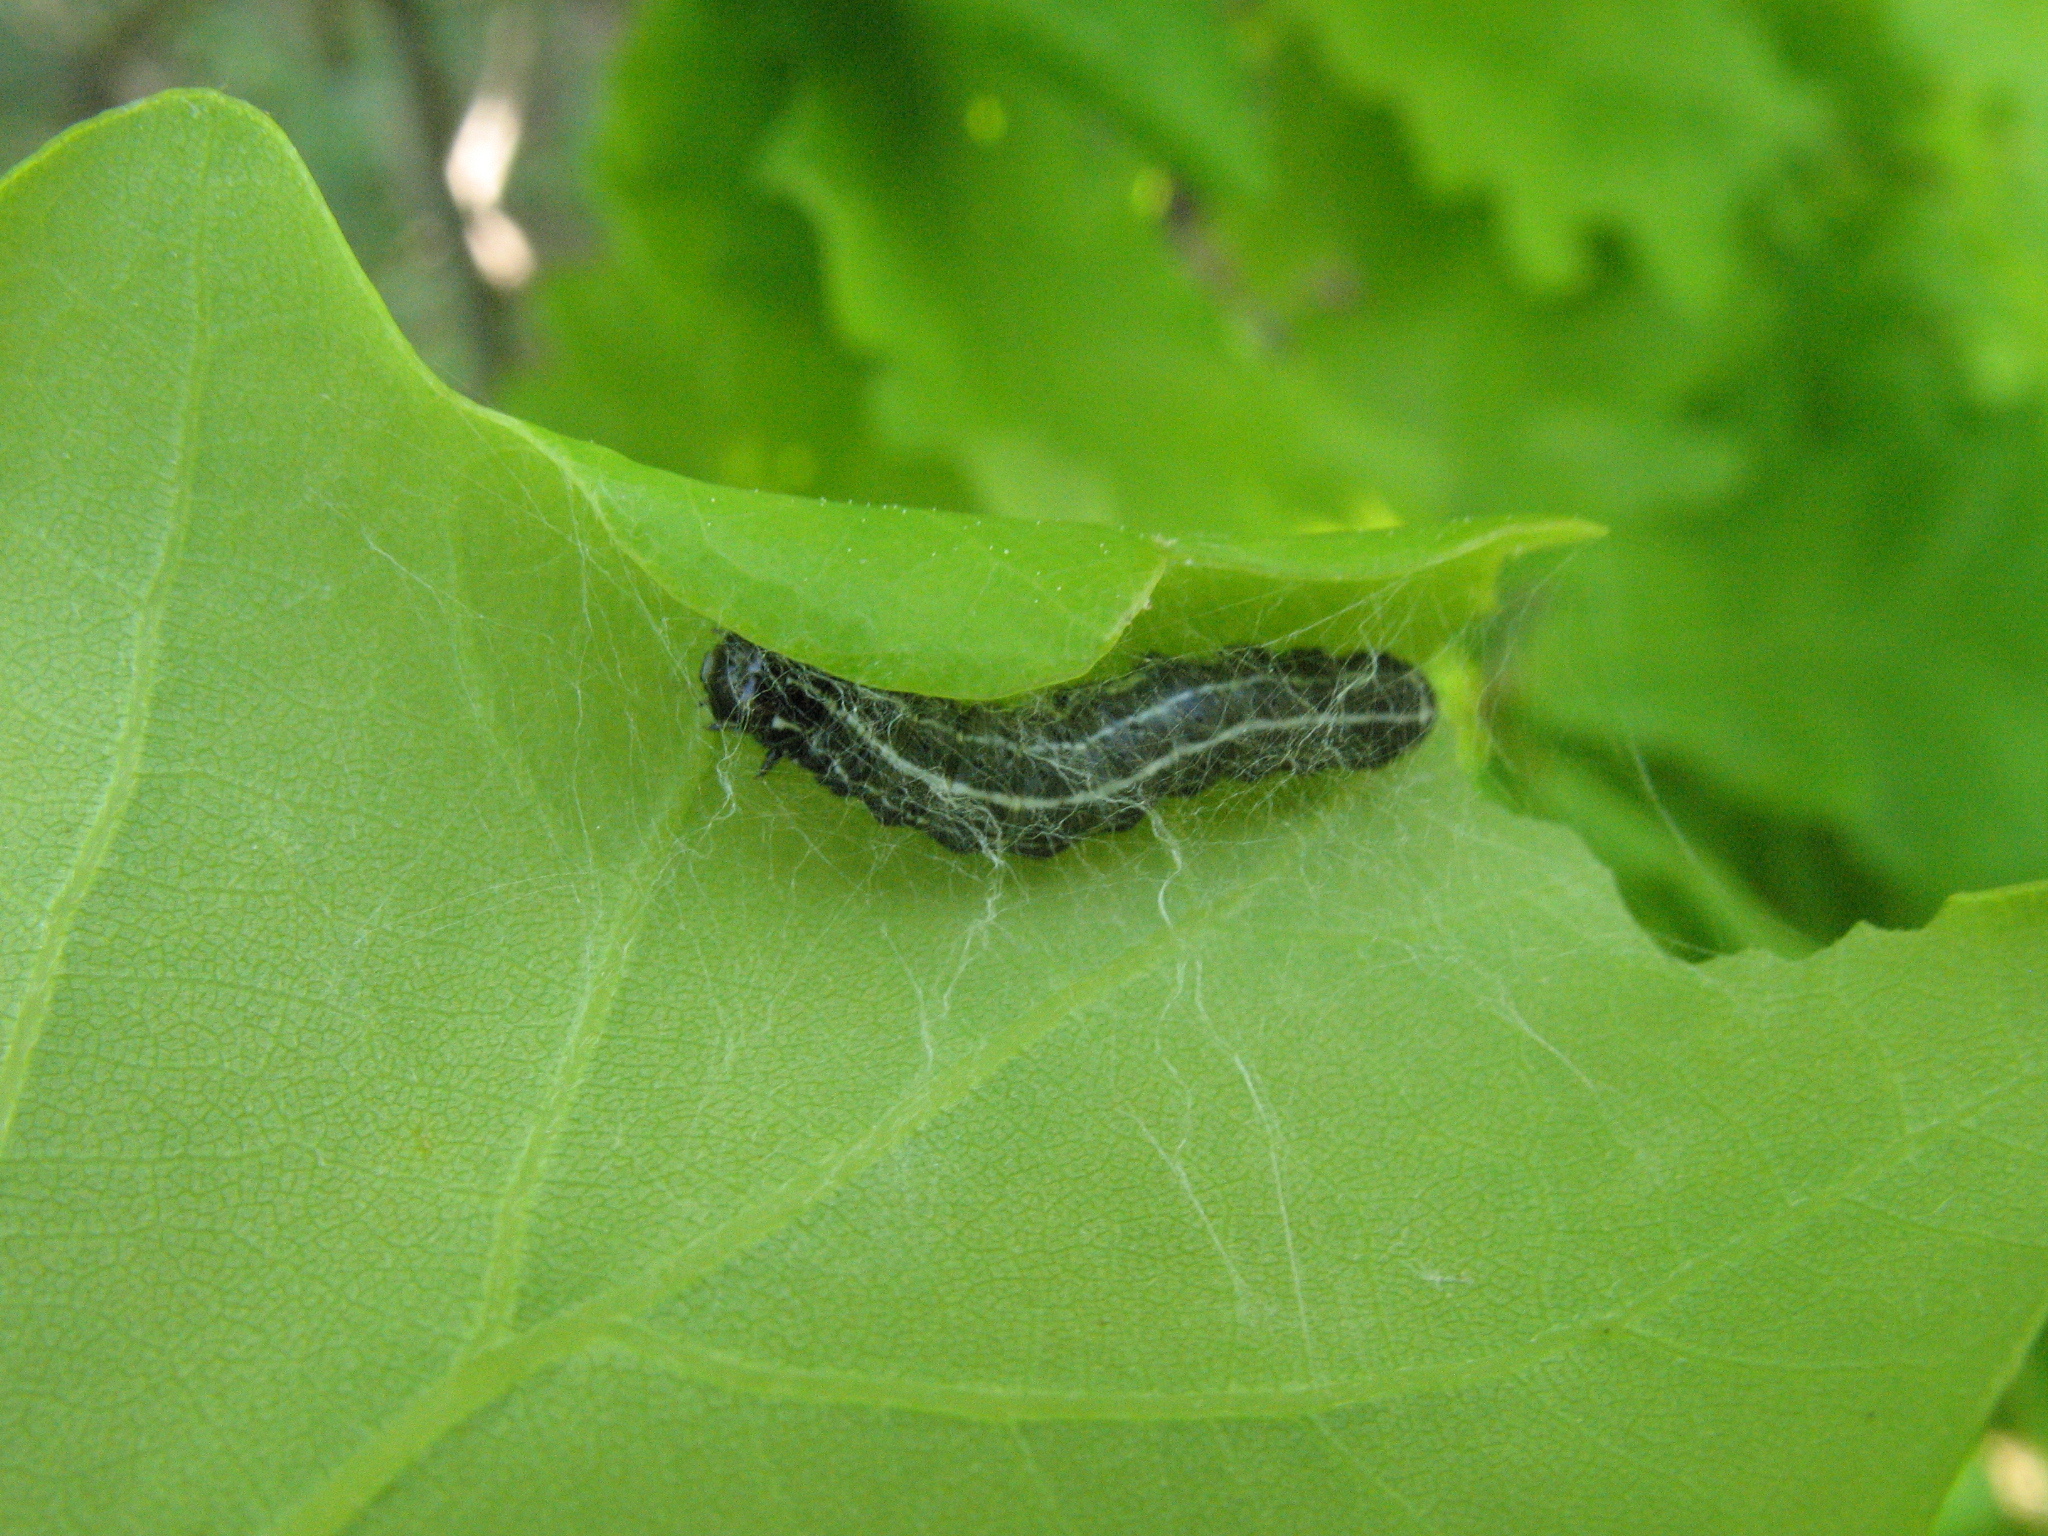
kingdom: Animalia
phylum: Arthropoda
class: Insecta
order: Lepidoptera
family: Noctuidae
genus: Orthosia
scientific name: Orthosia cruda
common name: Small quaker
